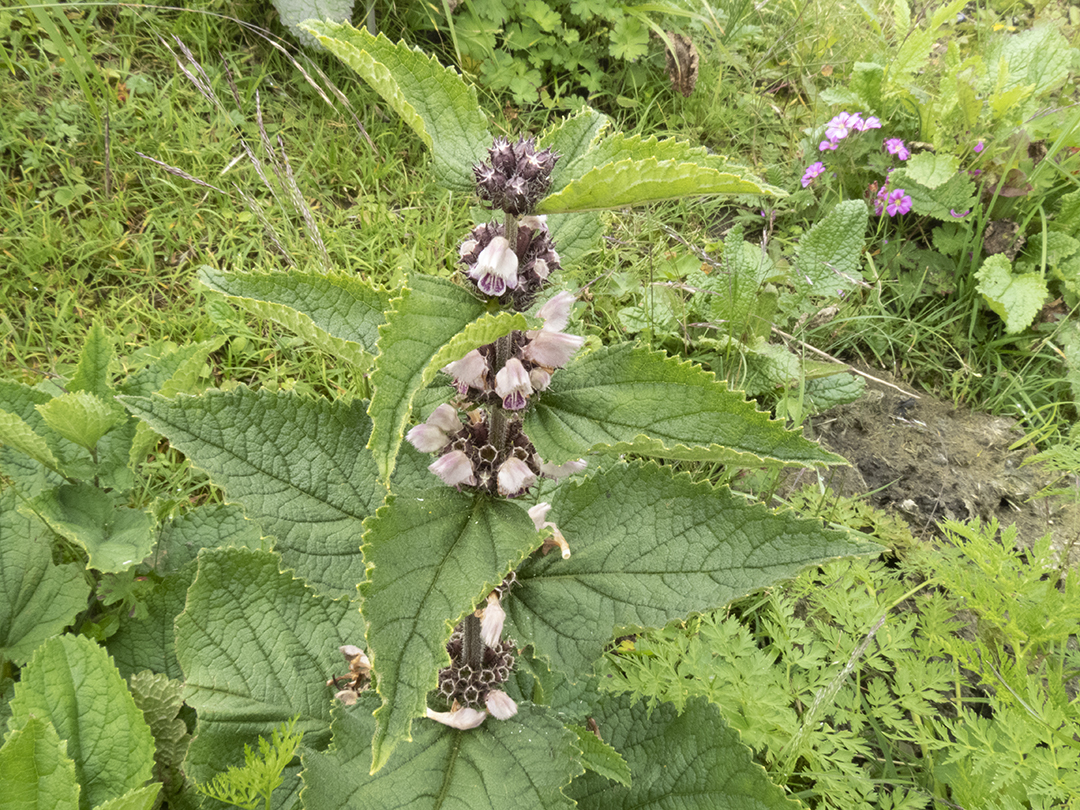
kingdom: Plantae
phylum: Tracheophyta
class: Magnoliopsida
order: Lamiales
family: Lamiaceae
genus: Phlomoides
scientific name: Phlomoides bracteosa
